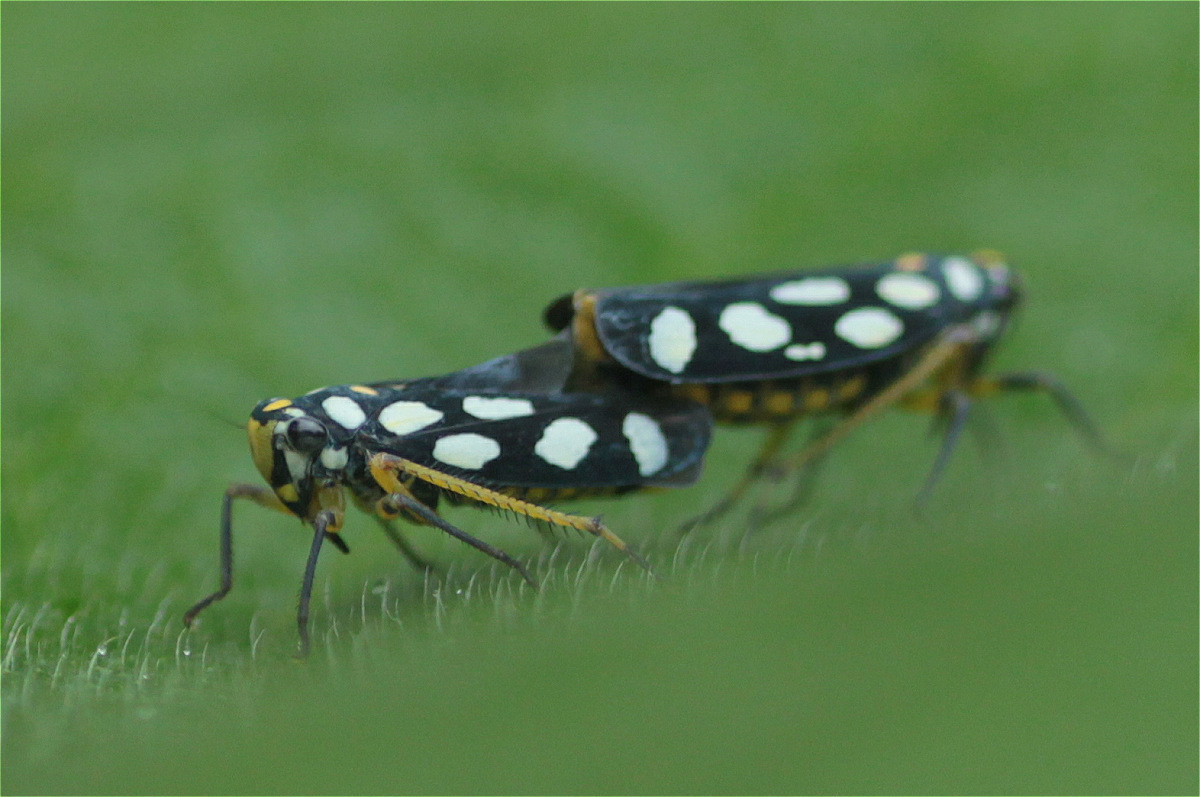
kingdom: Animalia
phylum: Arthropoda
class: Insecta
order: Hemiptera
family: Cicadellidae
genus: Stehlikiana
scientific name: Stehlikiana crassa
